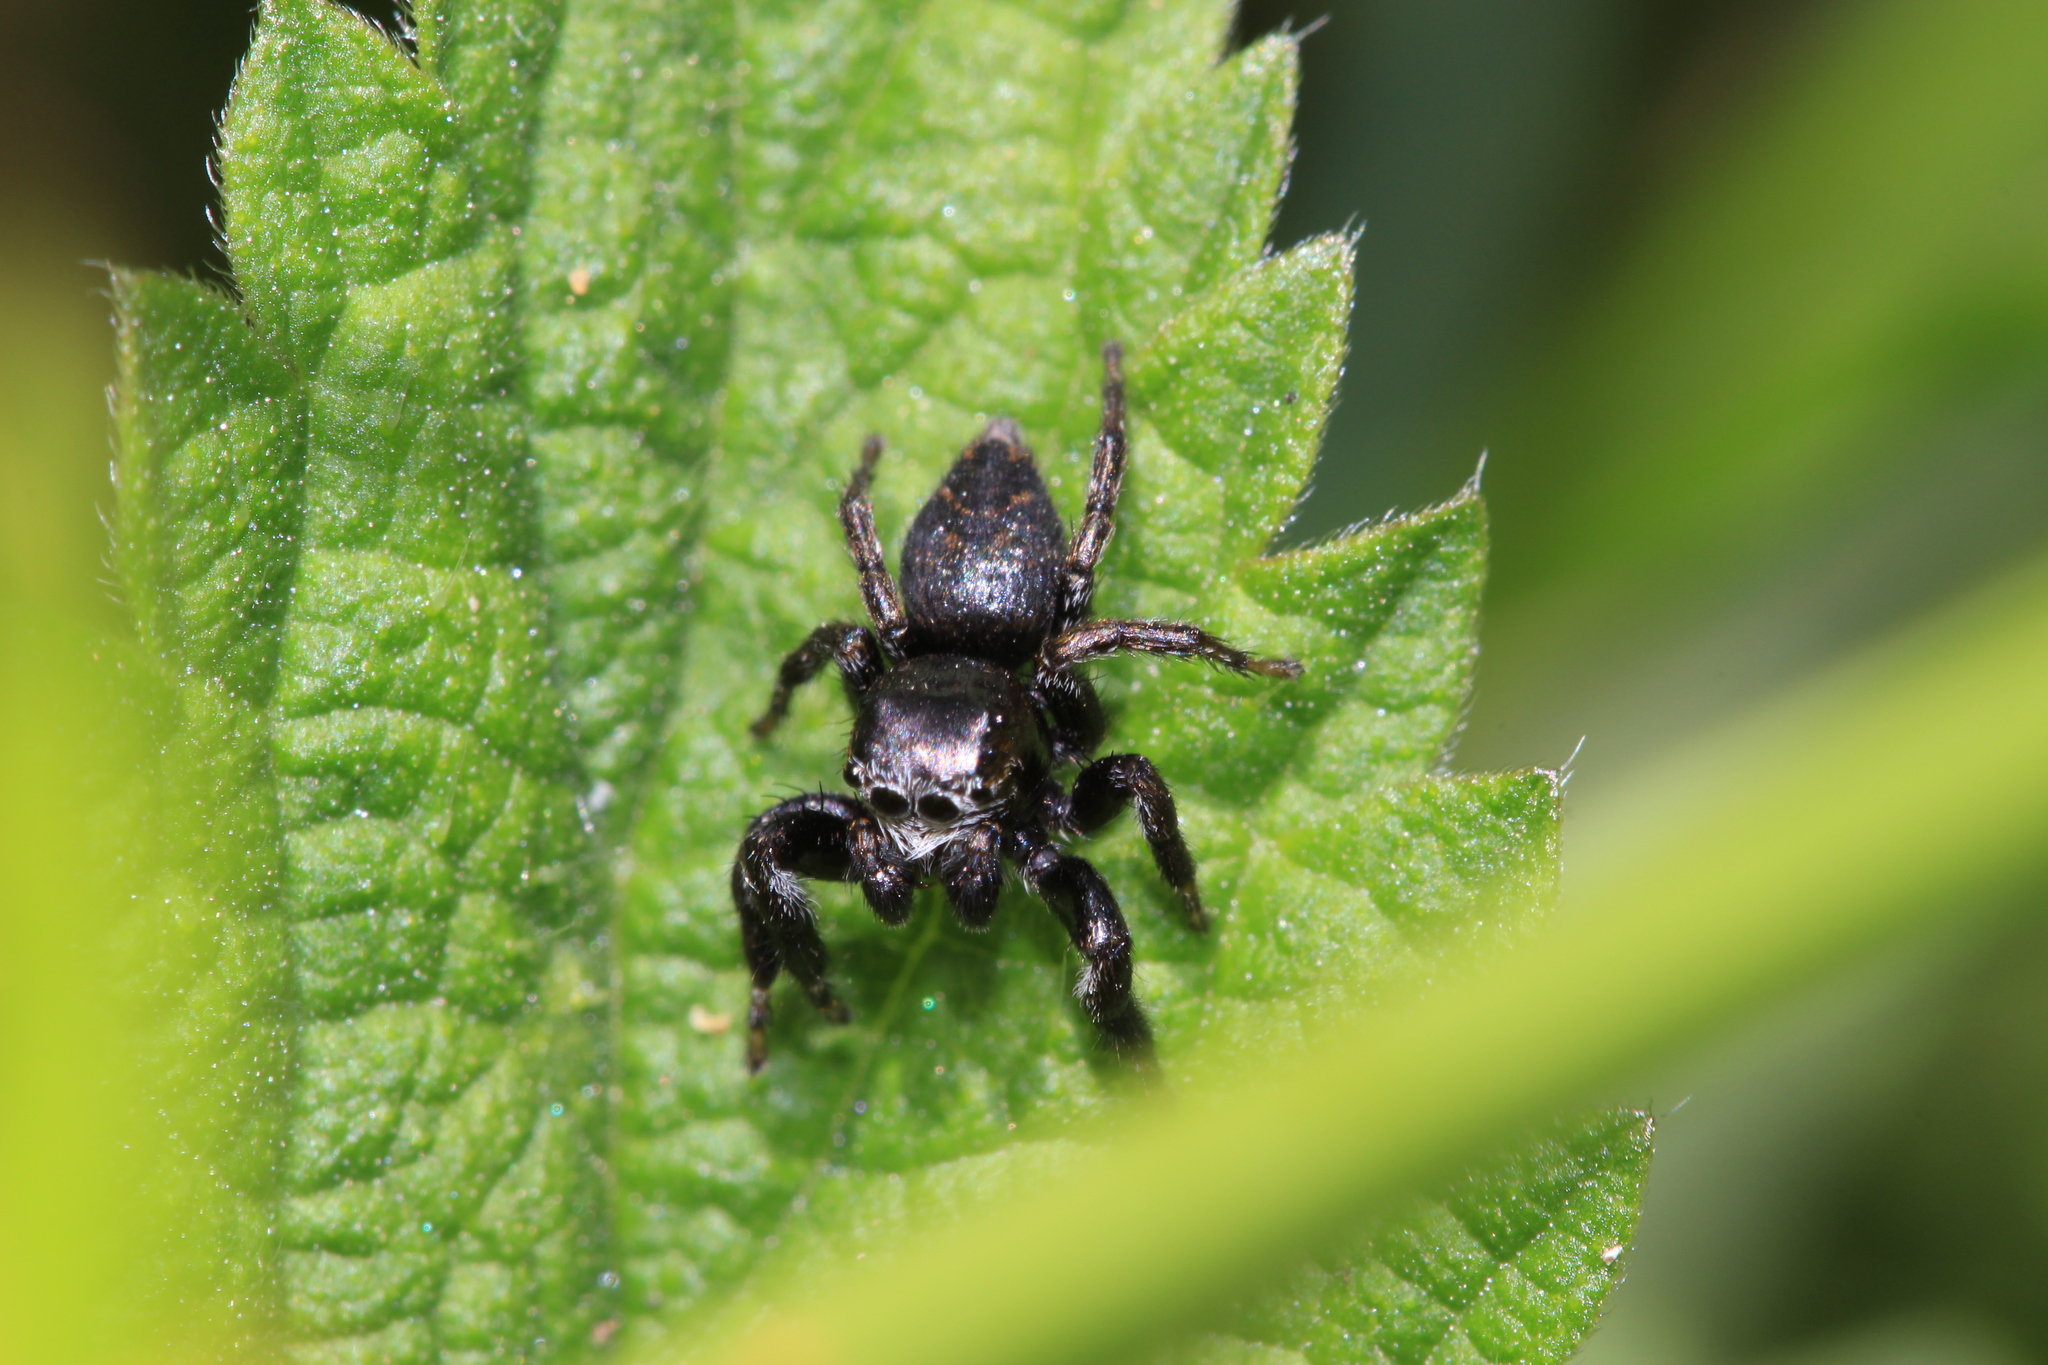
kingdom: Animalia
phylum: Arthropoda
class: Arachnida
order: Araneae
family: Salticidae
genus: Evarcha
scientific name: Evarcha arcuata
